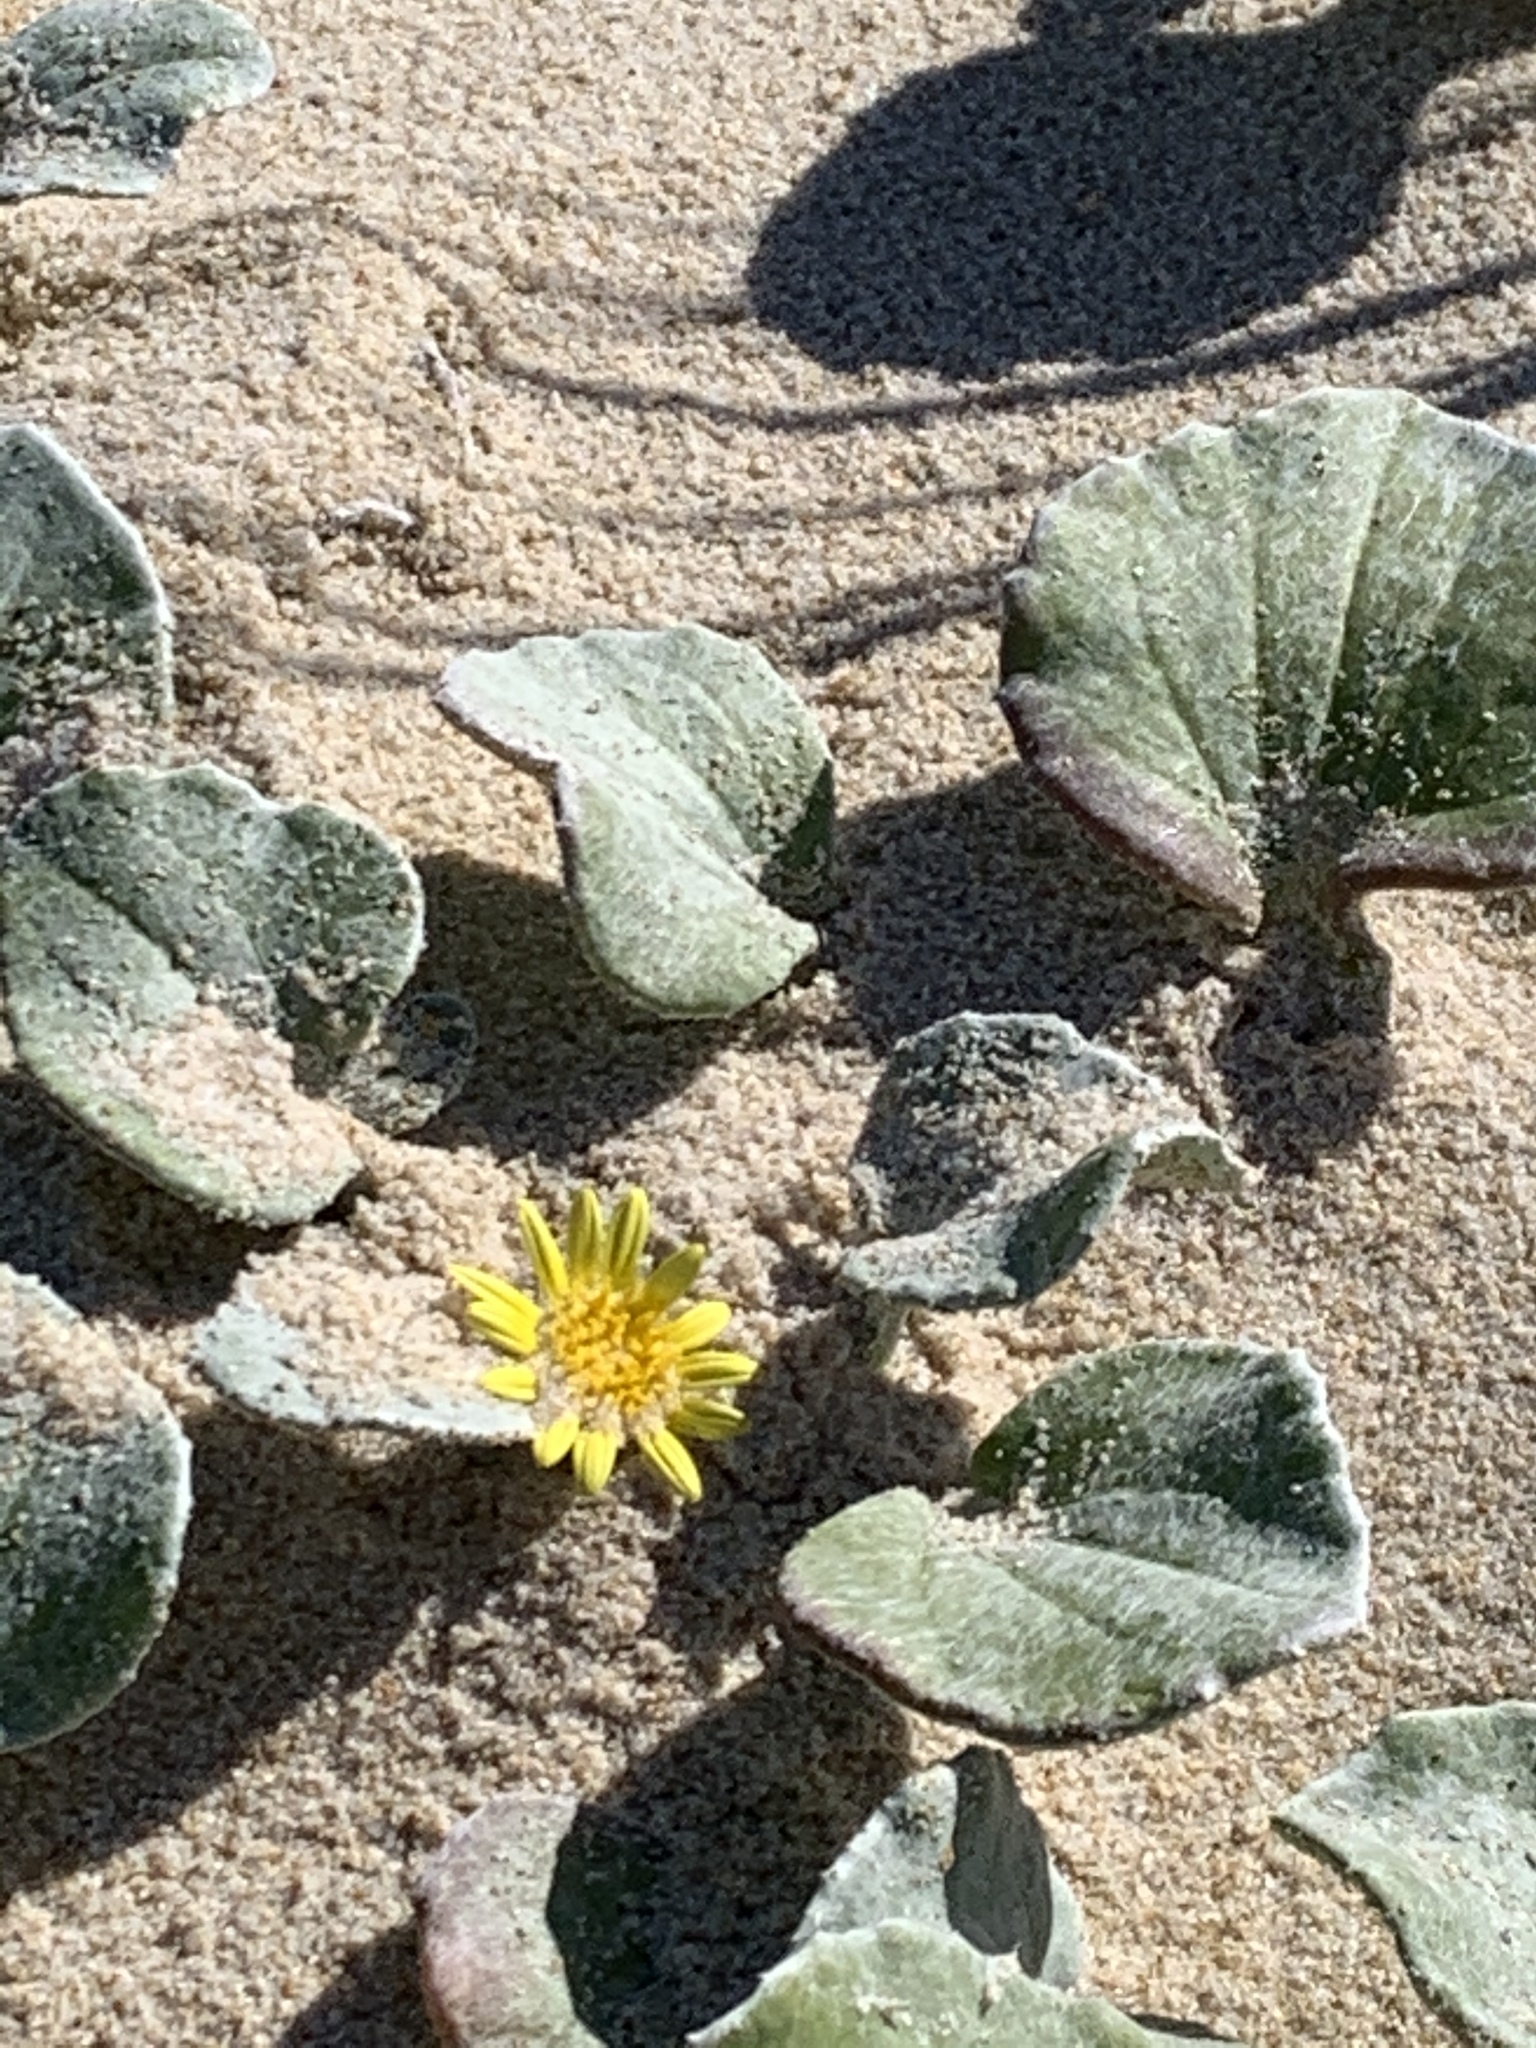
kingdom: Plantae
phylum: Tracheophyta
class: Magnoliopsida
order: Asterales
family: Asteraceae
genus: Arctotheca
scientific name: Arctotheca populifolia
